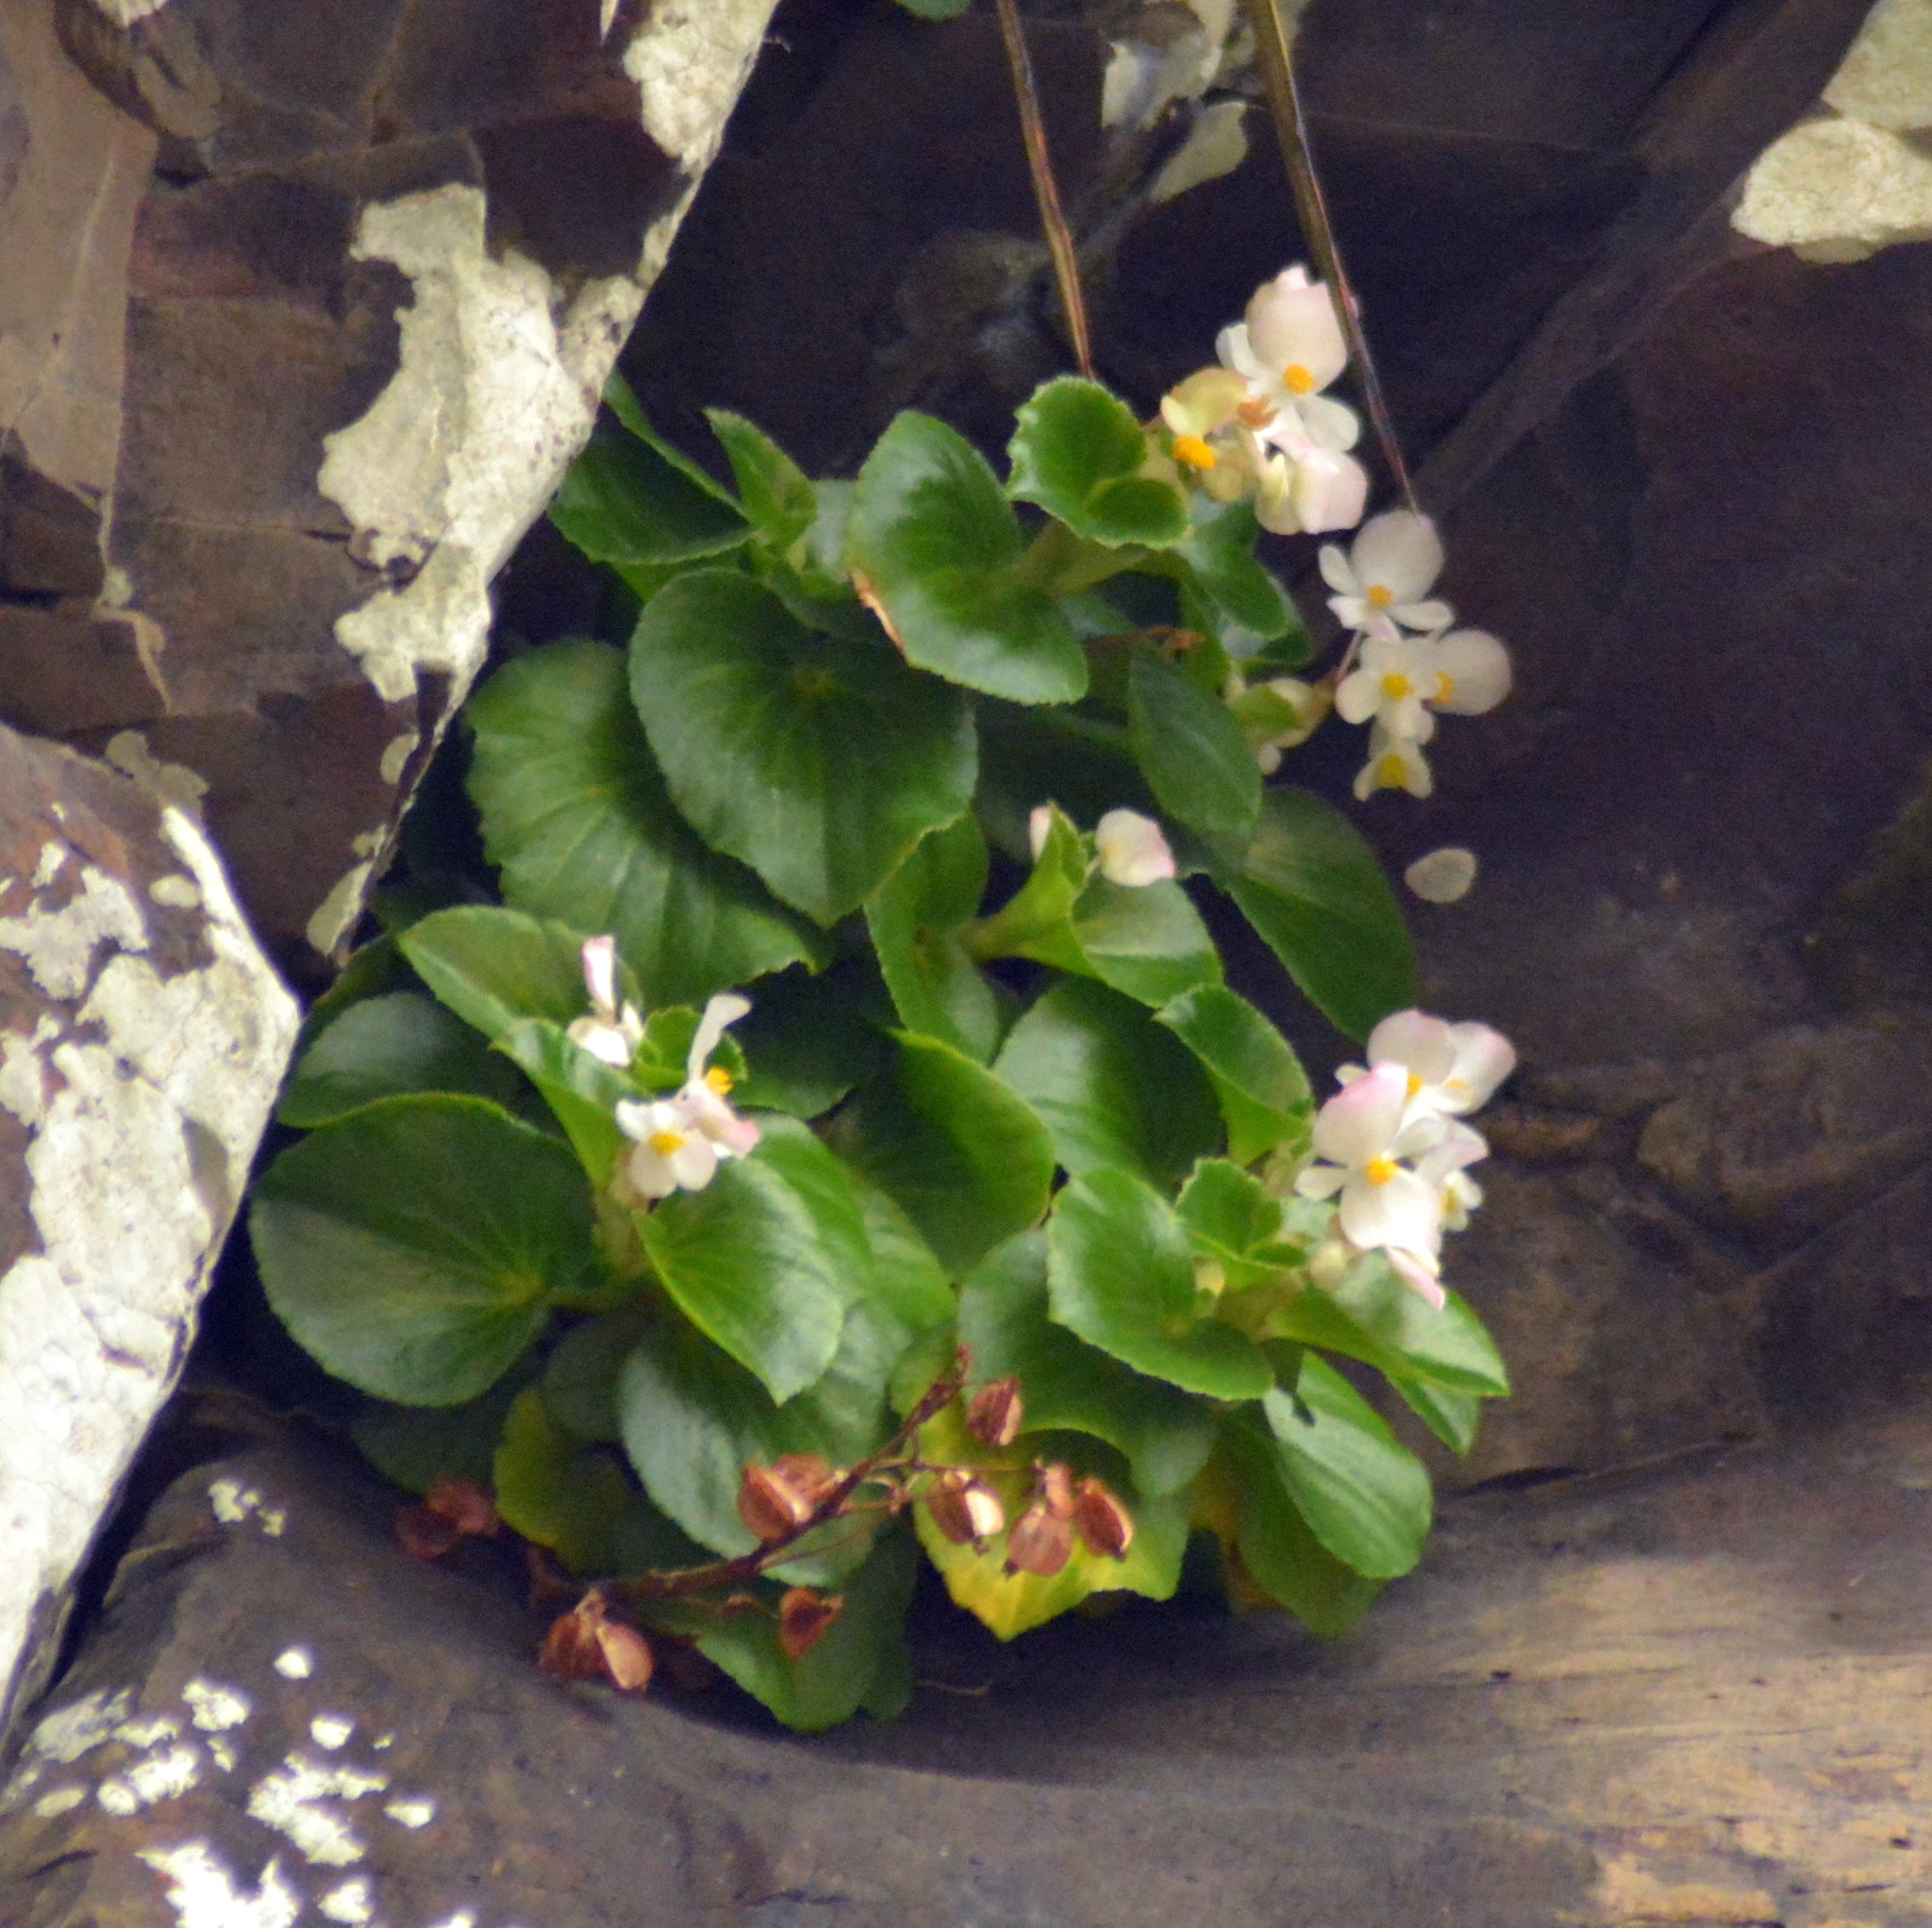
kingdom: Plantae
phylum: Tracheophyta
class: Magnoliopsida
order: Cucurbitales
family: Begoniaceae
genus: Begonia
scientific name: Begonia cucullata
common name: Clubbed begonia
